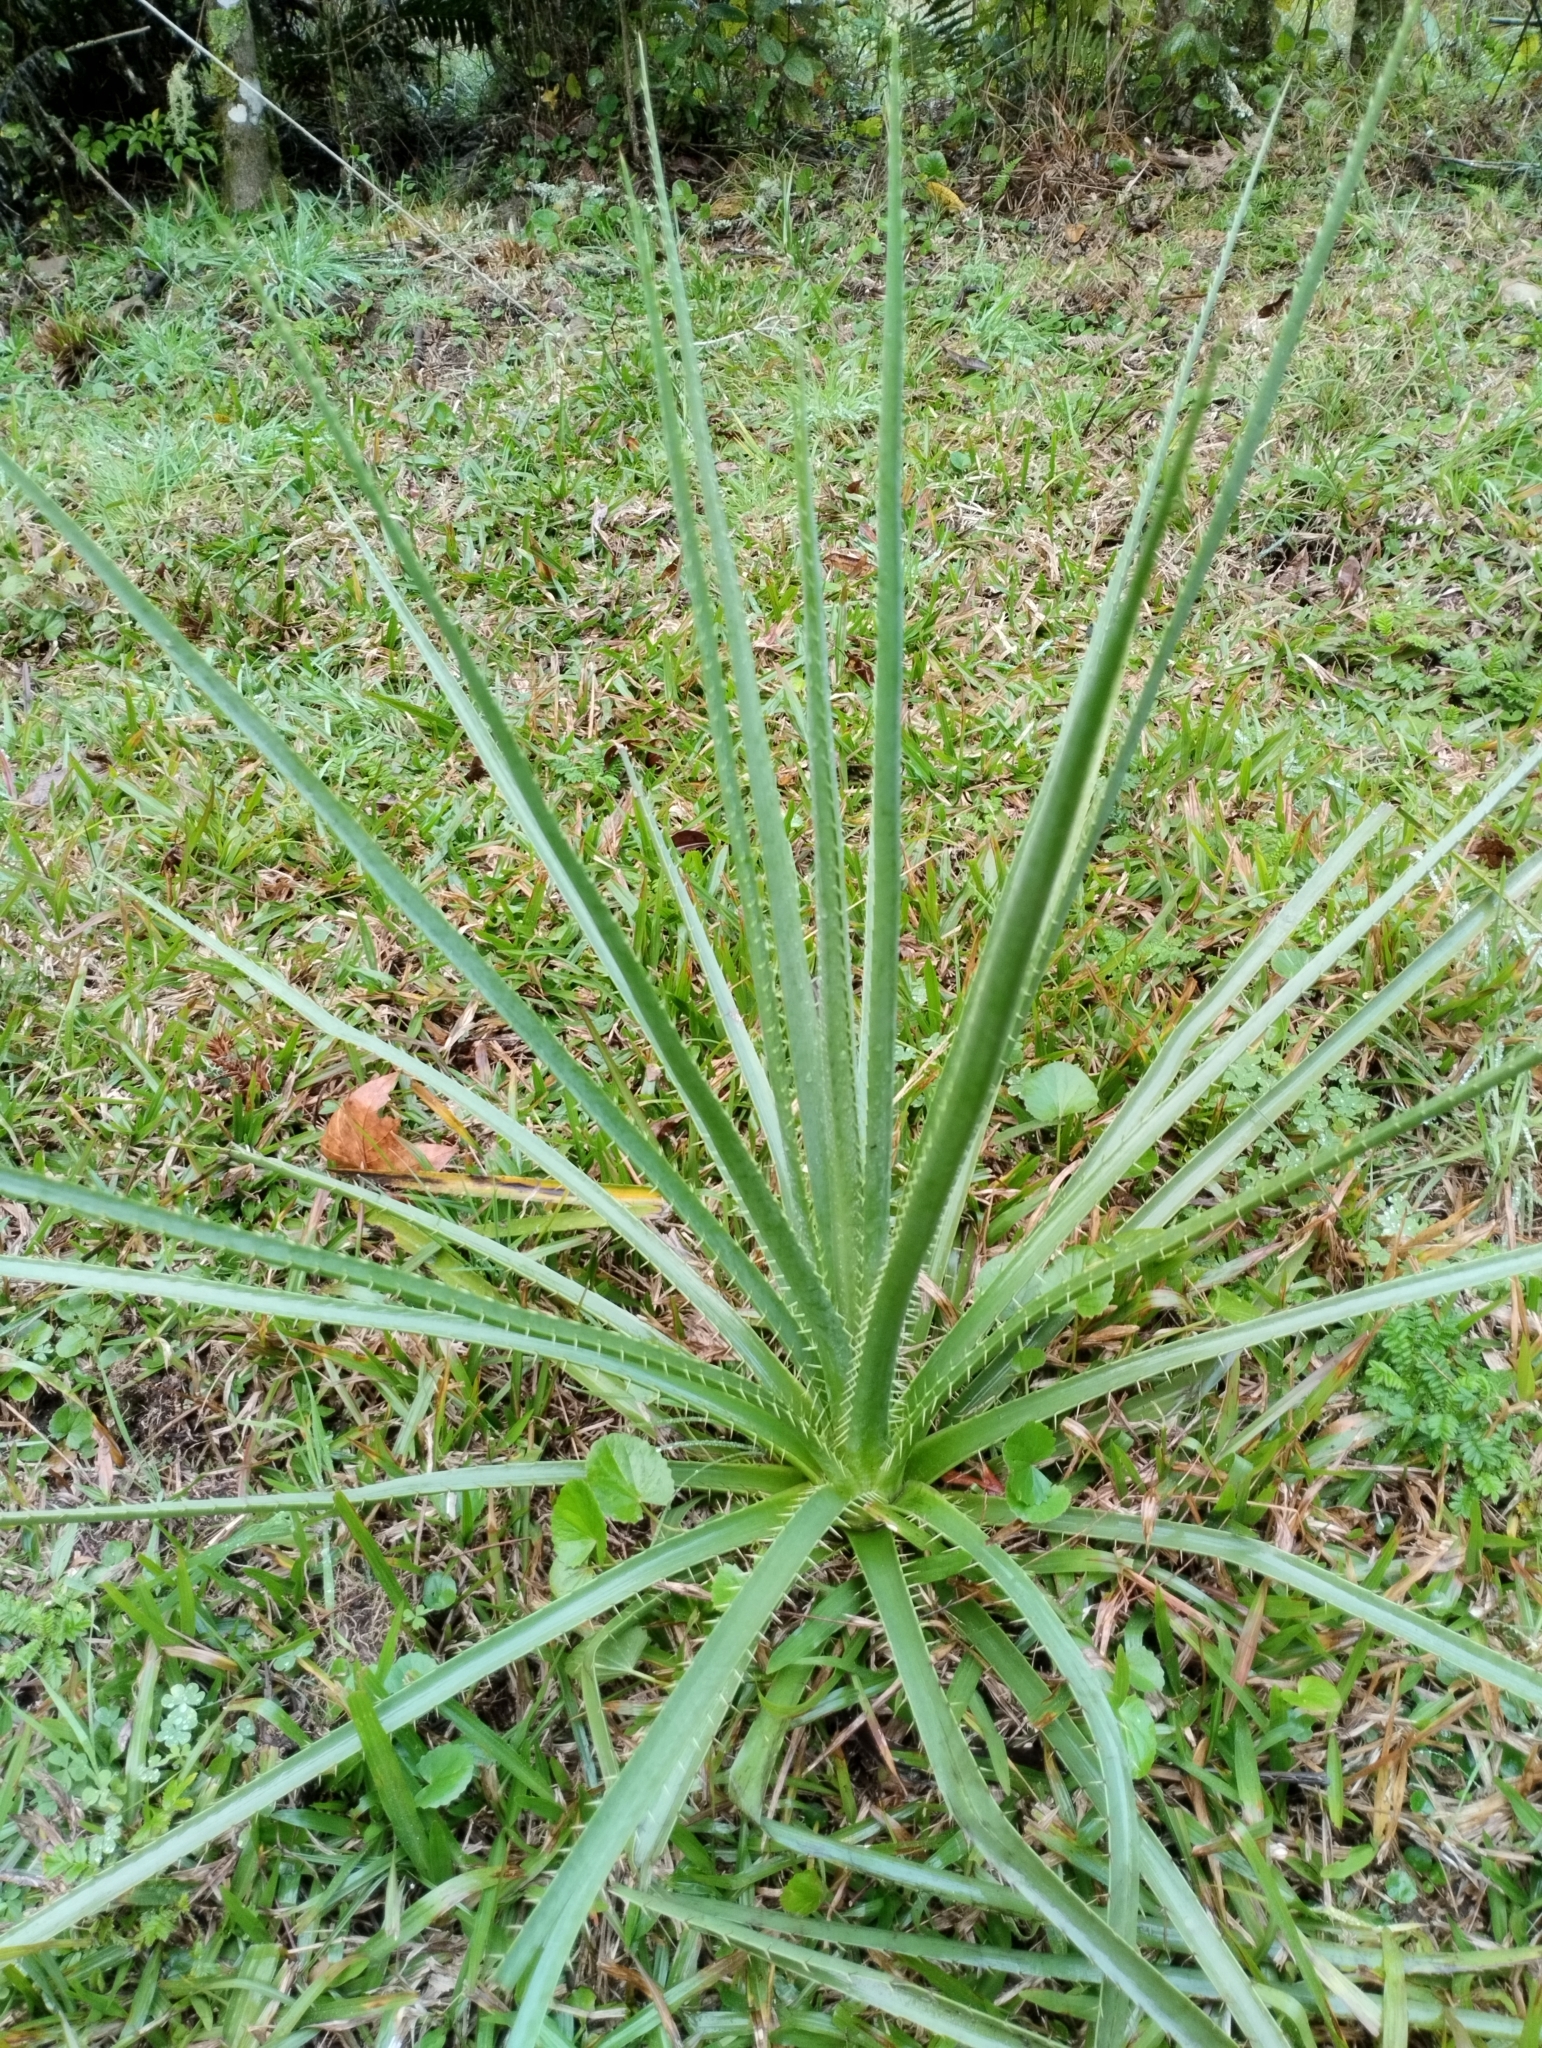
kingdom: Plantae
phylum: Tracheophyta
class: Magnoliopsida
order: Apiales
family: Apiaceae
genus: Eryngium
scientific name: Eryngium pandanifolium
